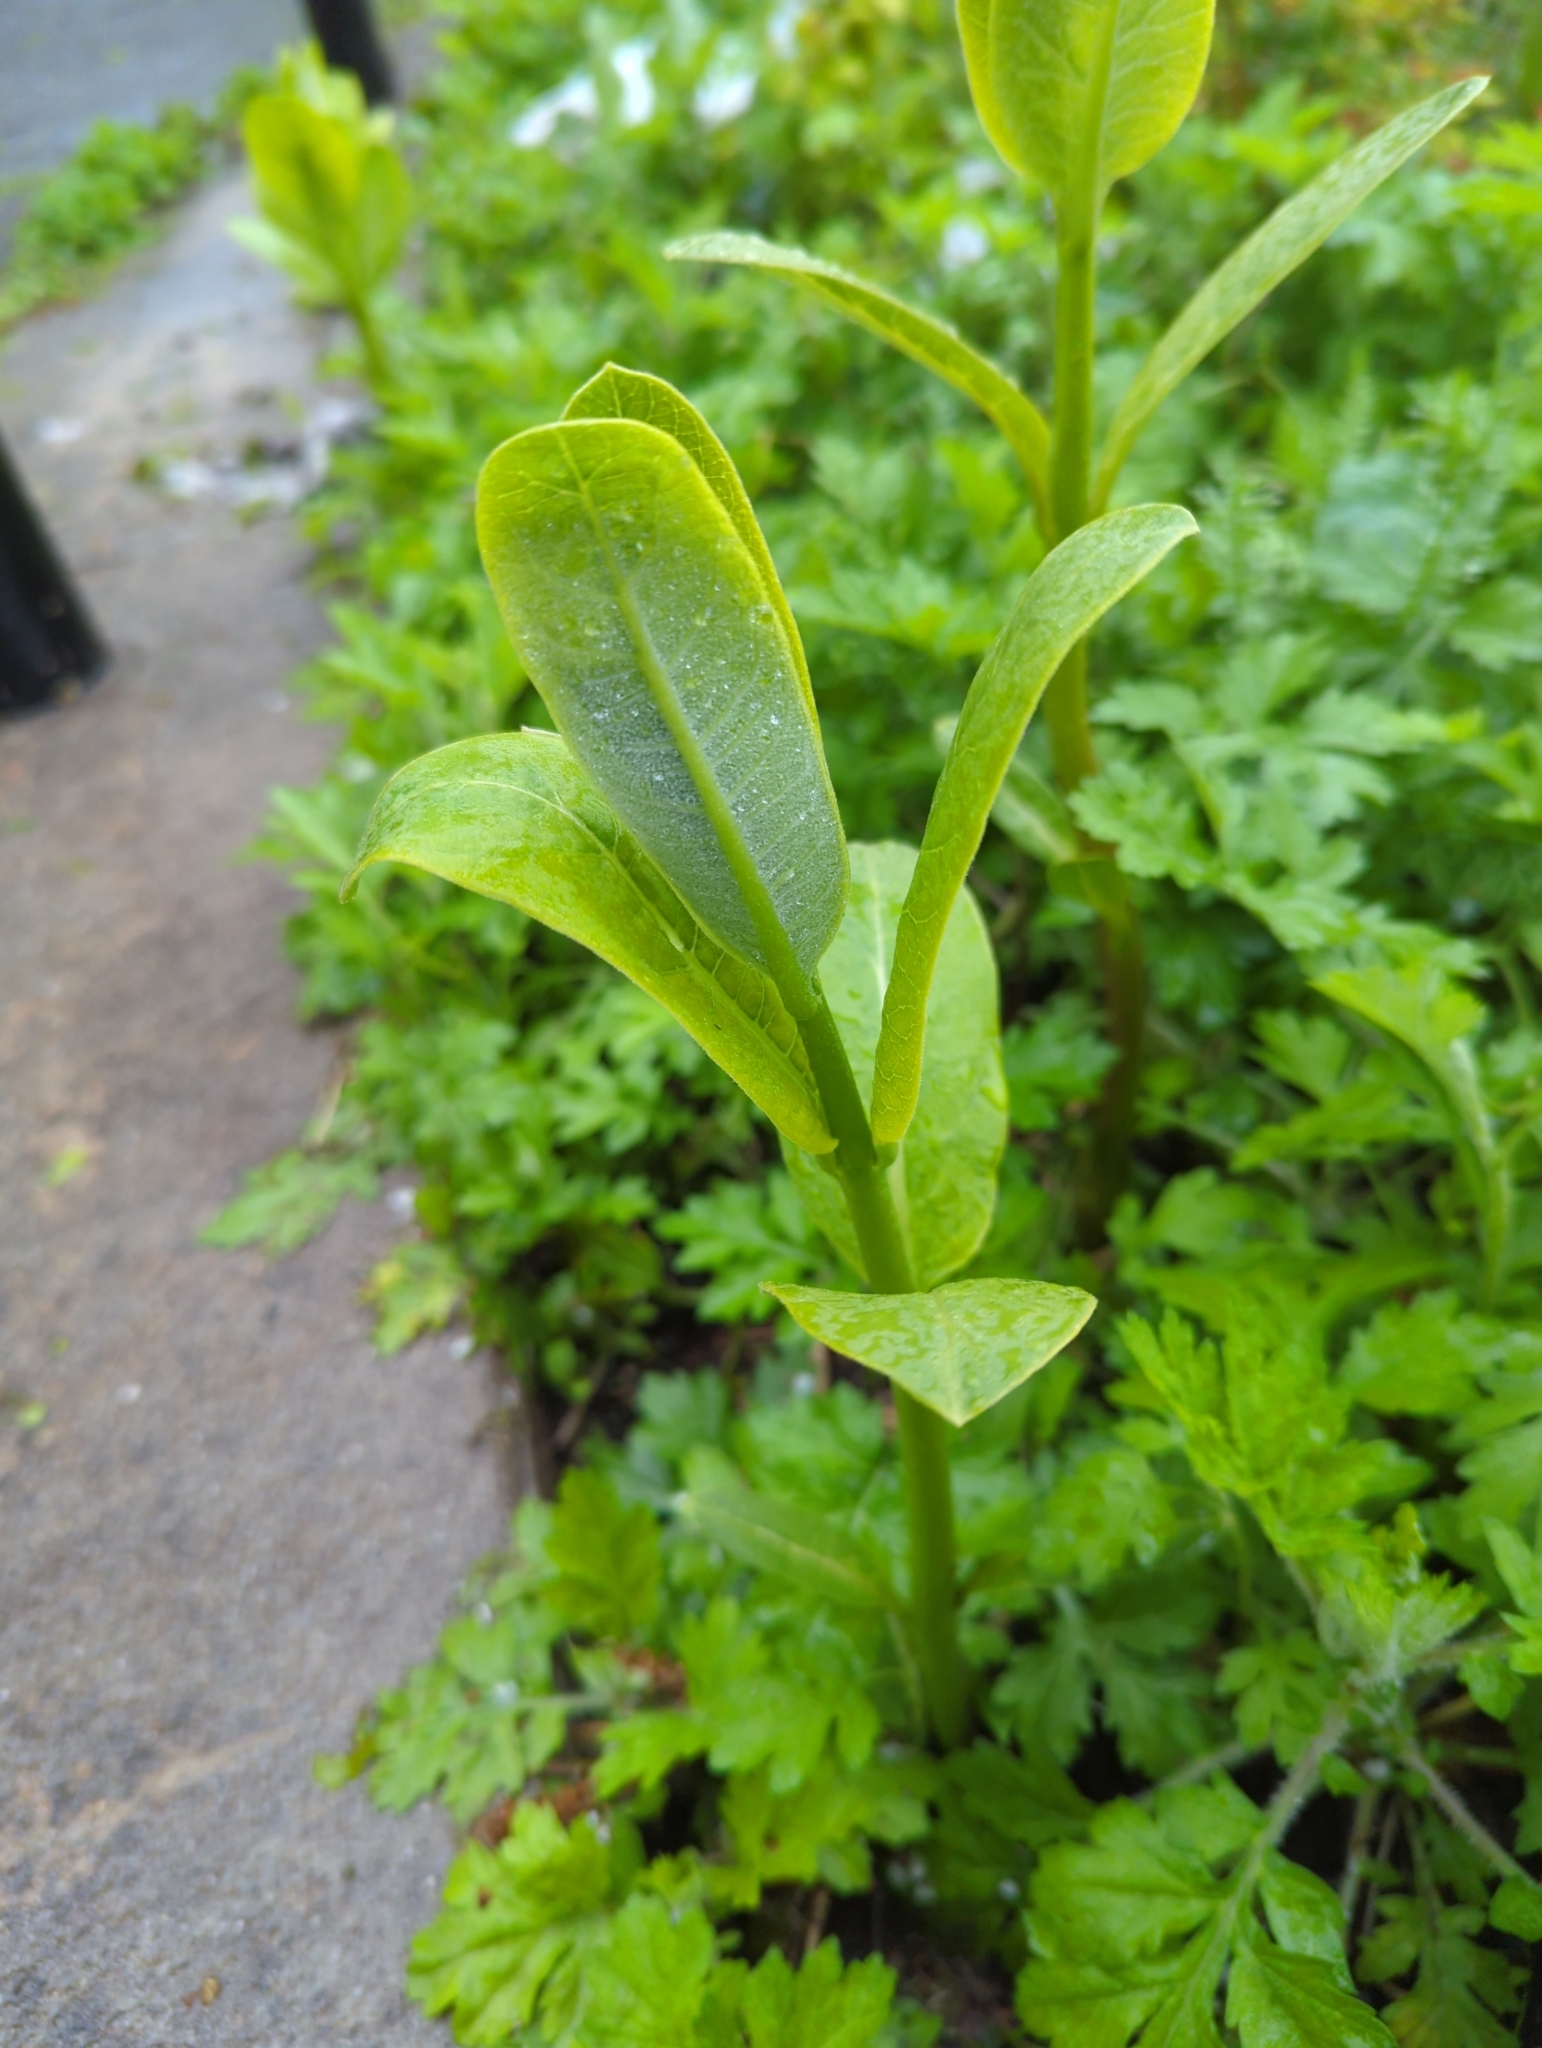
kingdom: Plantae
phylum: Tracheophyta
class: Magnoliopsida
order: Gentianales
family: Apocynaceae
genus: Asclepias
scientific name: Asclepias syriaca
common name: Common milkweed
